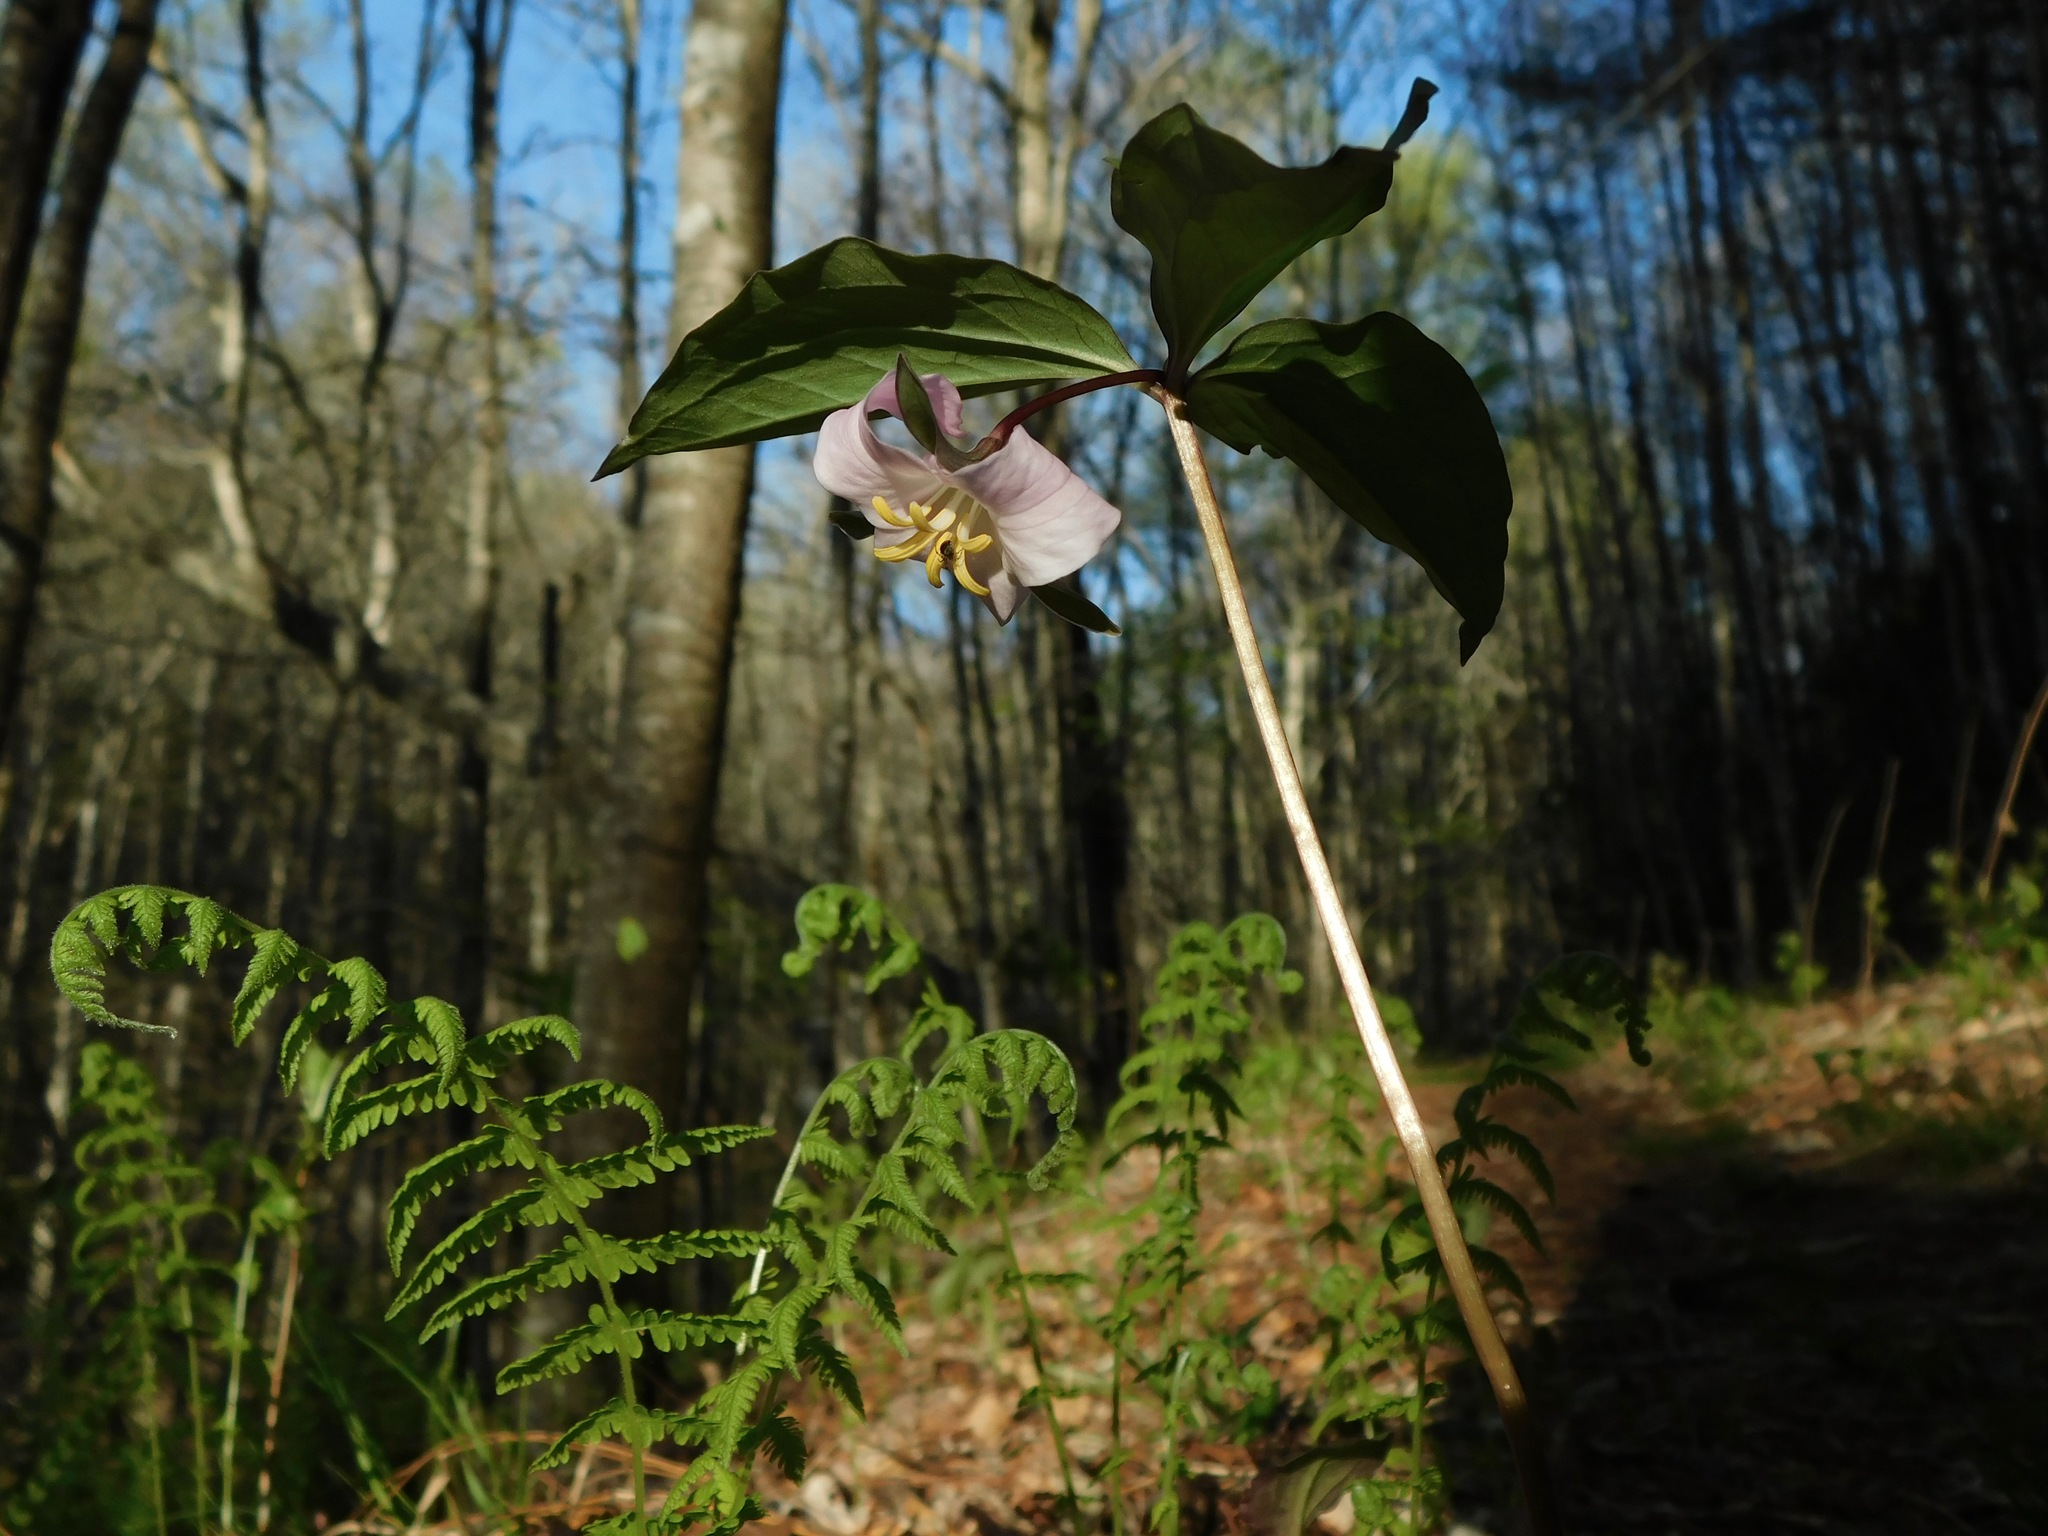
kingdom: Plantae
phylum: Tracheophyta
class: Liliopsida
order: Liliales
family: Melanthiaceae
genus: Trillium
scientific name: Trillium catesbaei
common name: Bashful trillium
